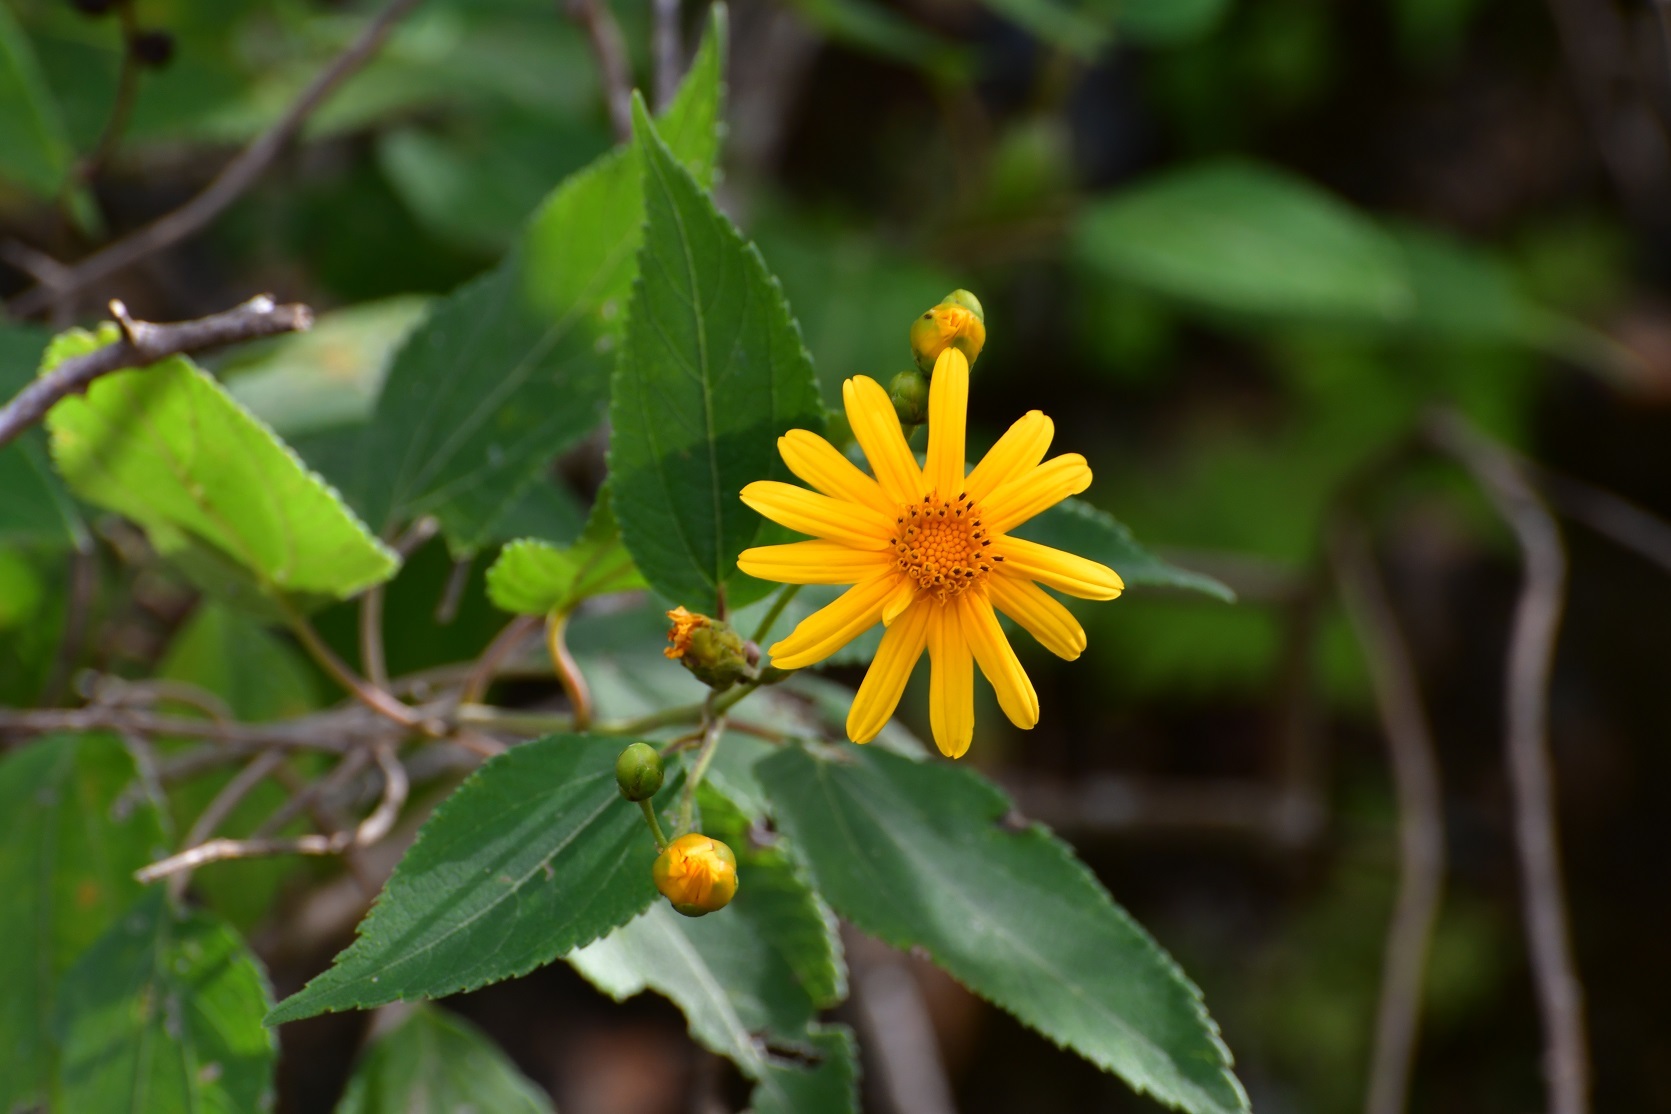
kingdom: Plantae
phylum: Tracheophyta
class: Magnoliopsida
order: Asterales
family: Asteraceae
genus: Lasianthaea
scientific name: Lasianthaea fruticosa
